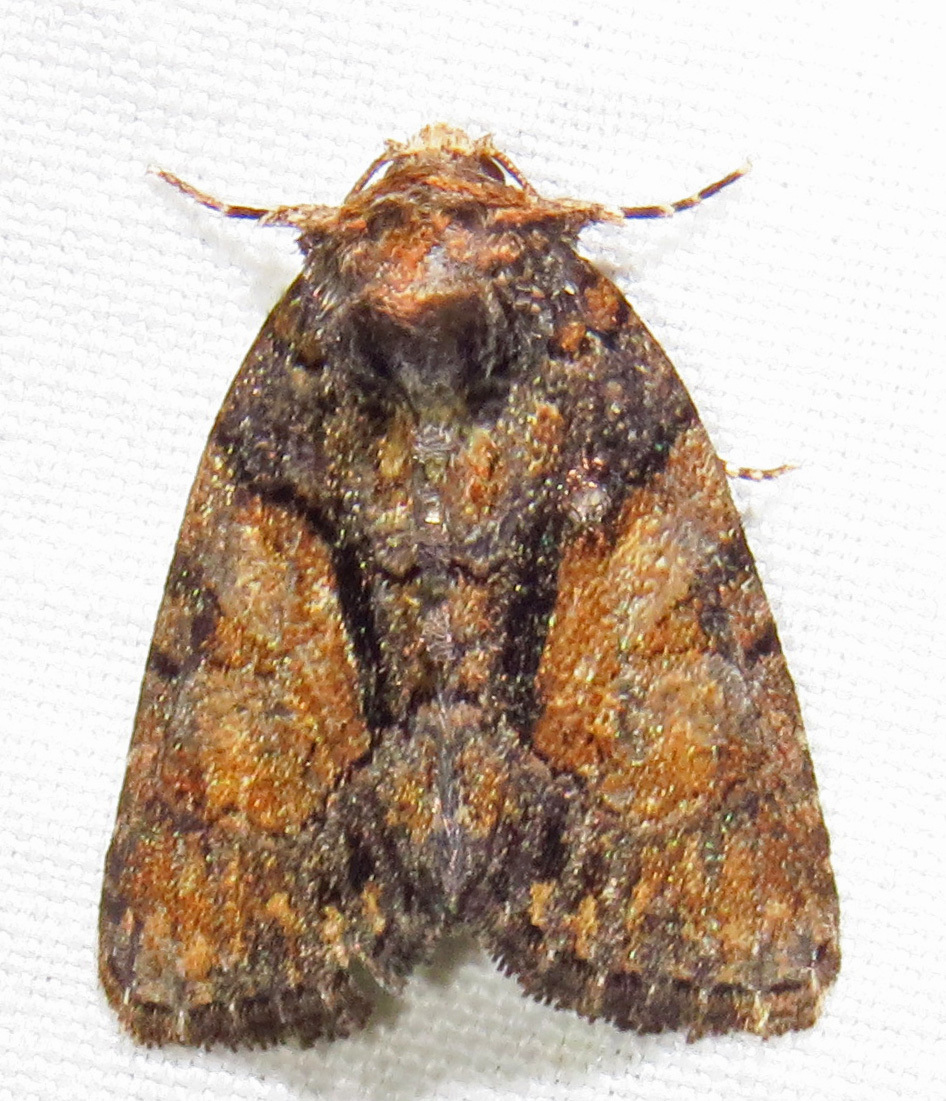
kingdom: Animalia
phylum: Arthropoda
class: Insecta
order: Lepidoptera
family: Noctuidae
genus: Chytonix
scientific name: Chytonix palliatricula
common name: Cloaked marvel
